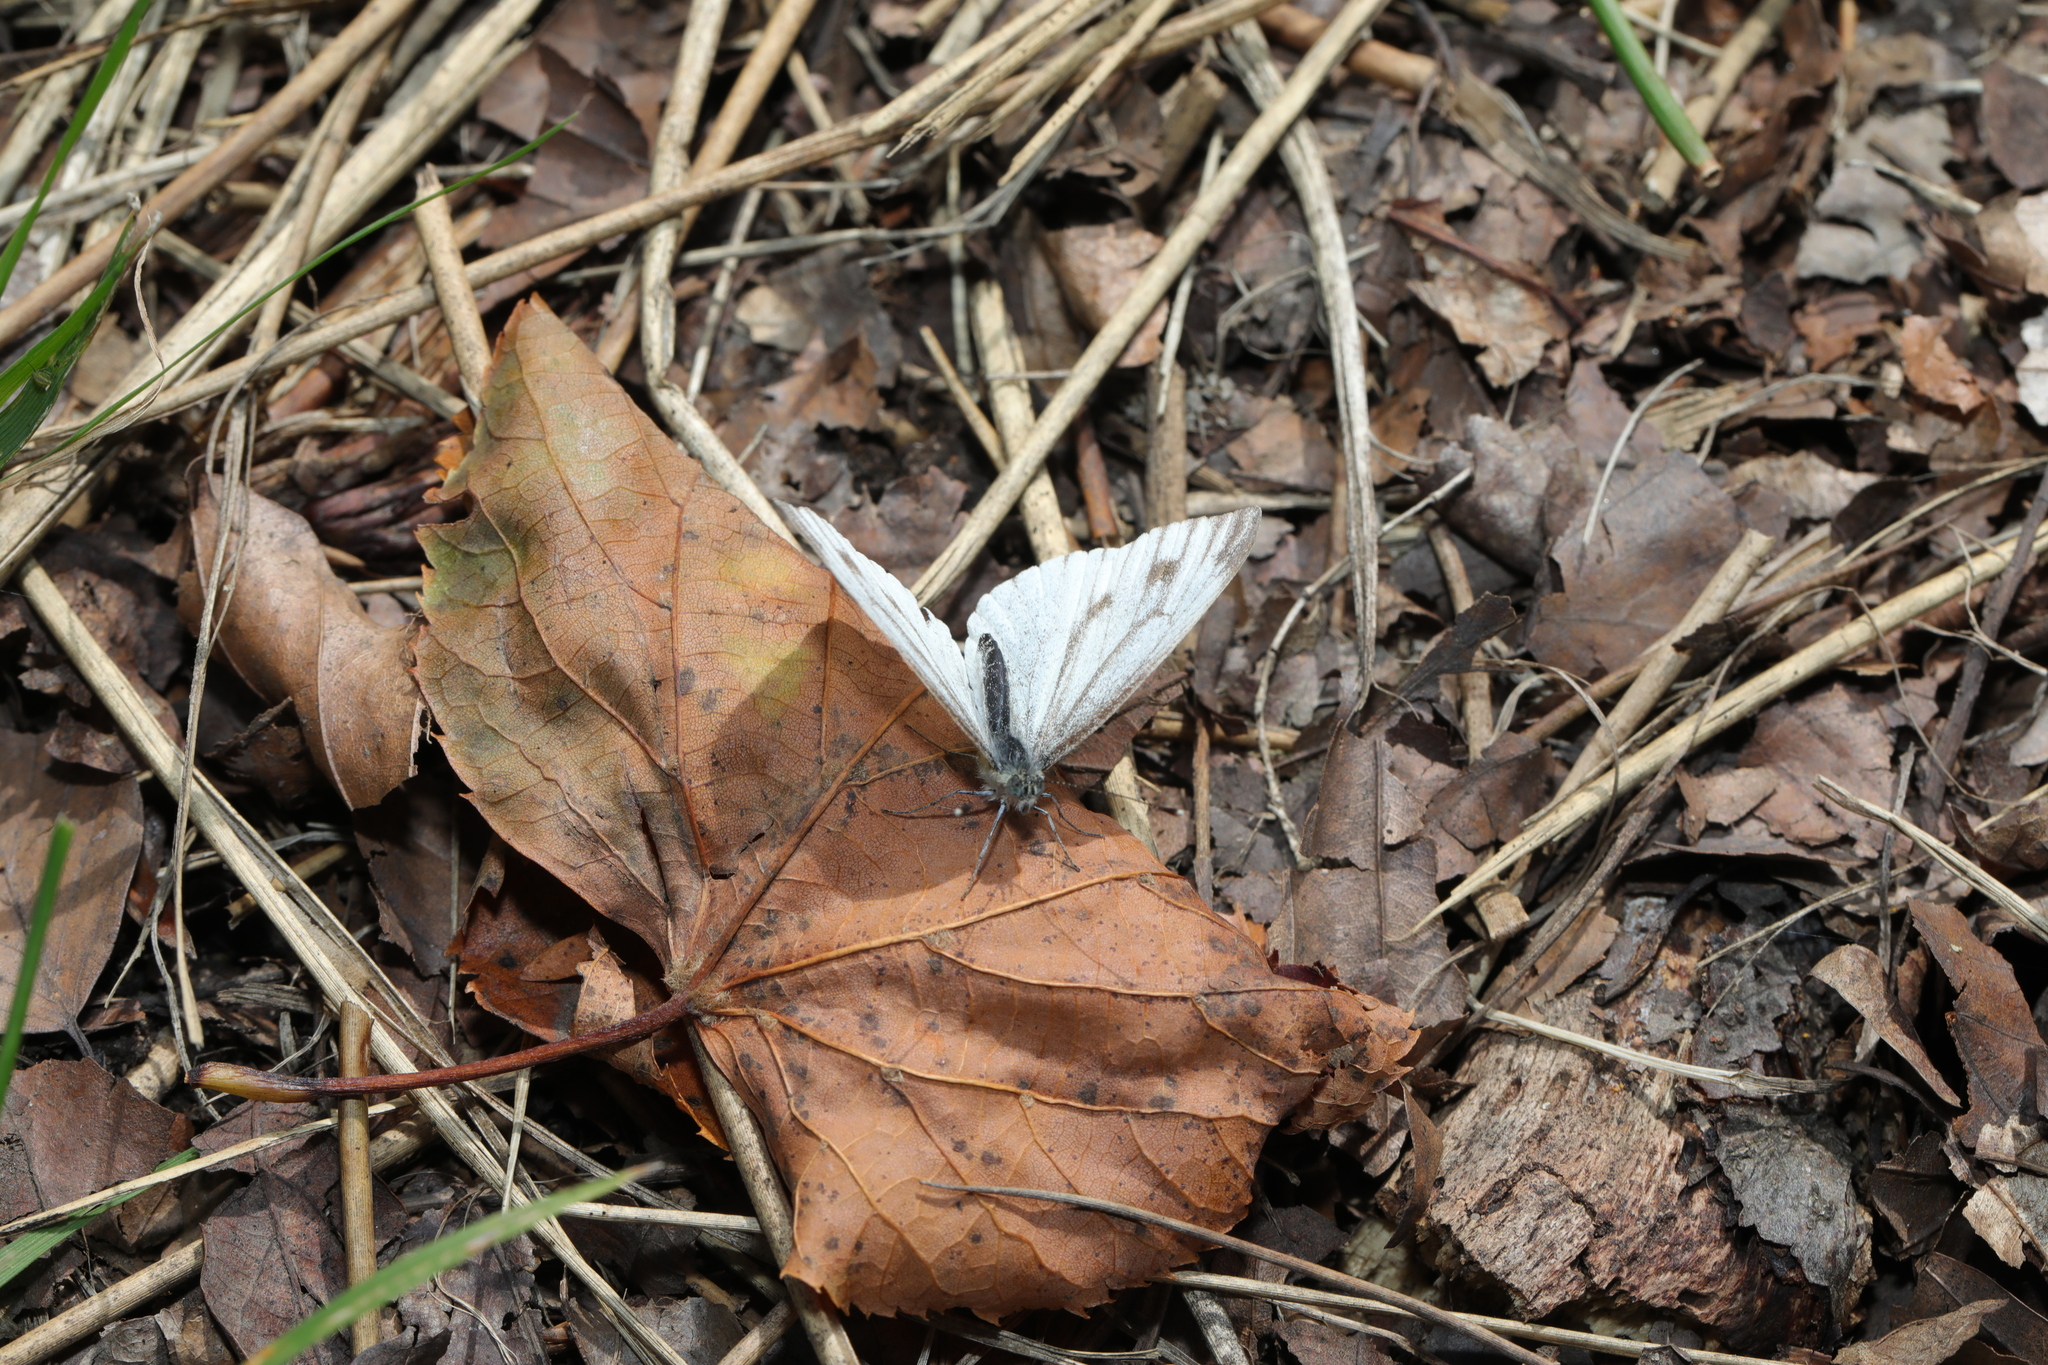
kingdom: Animalia
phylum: Arthropoda
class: Insecta
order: Lepidoptera
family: Pieridae
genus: Pieris
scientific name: Pieris napi
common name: Green-veined white
